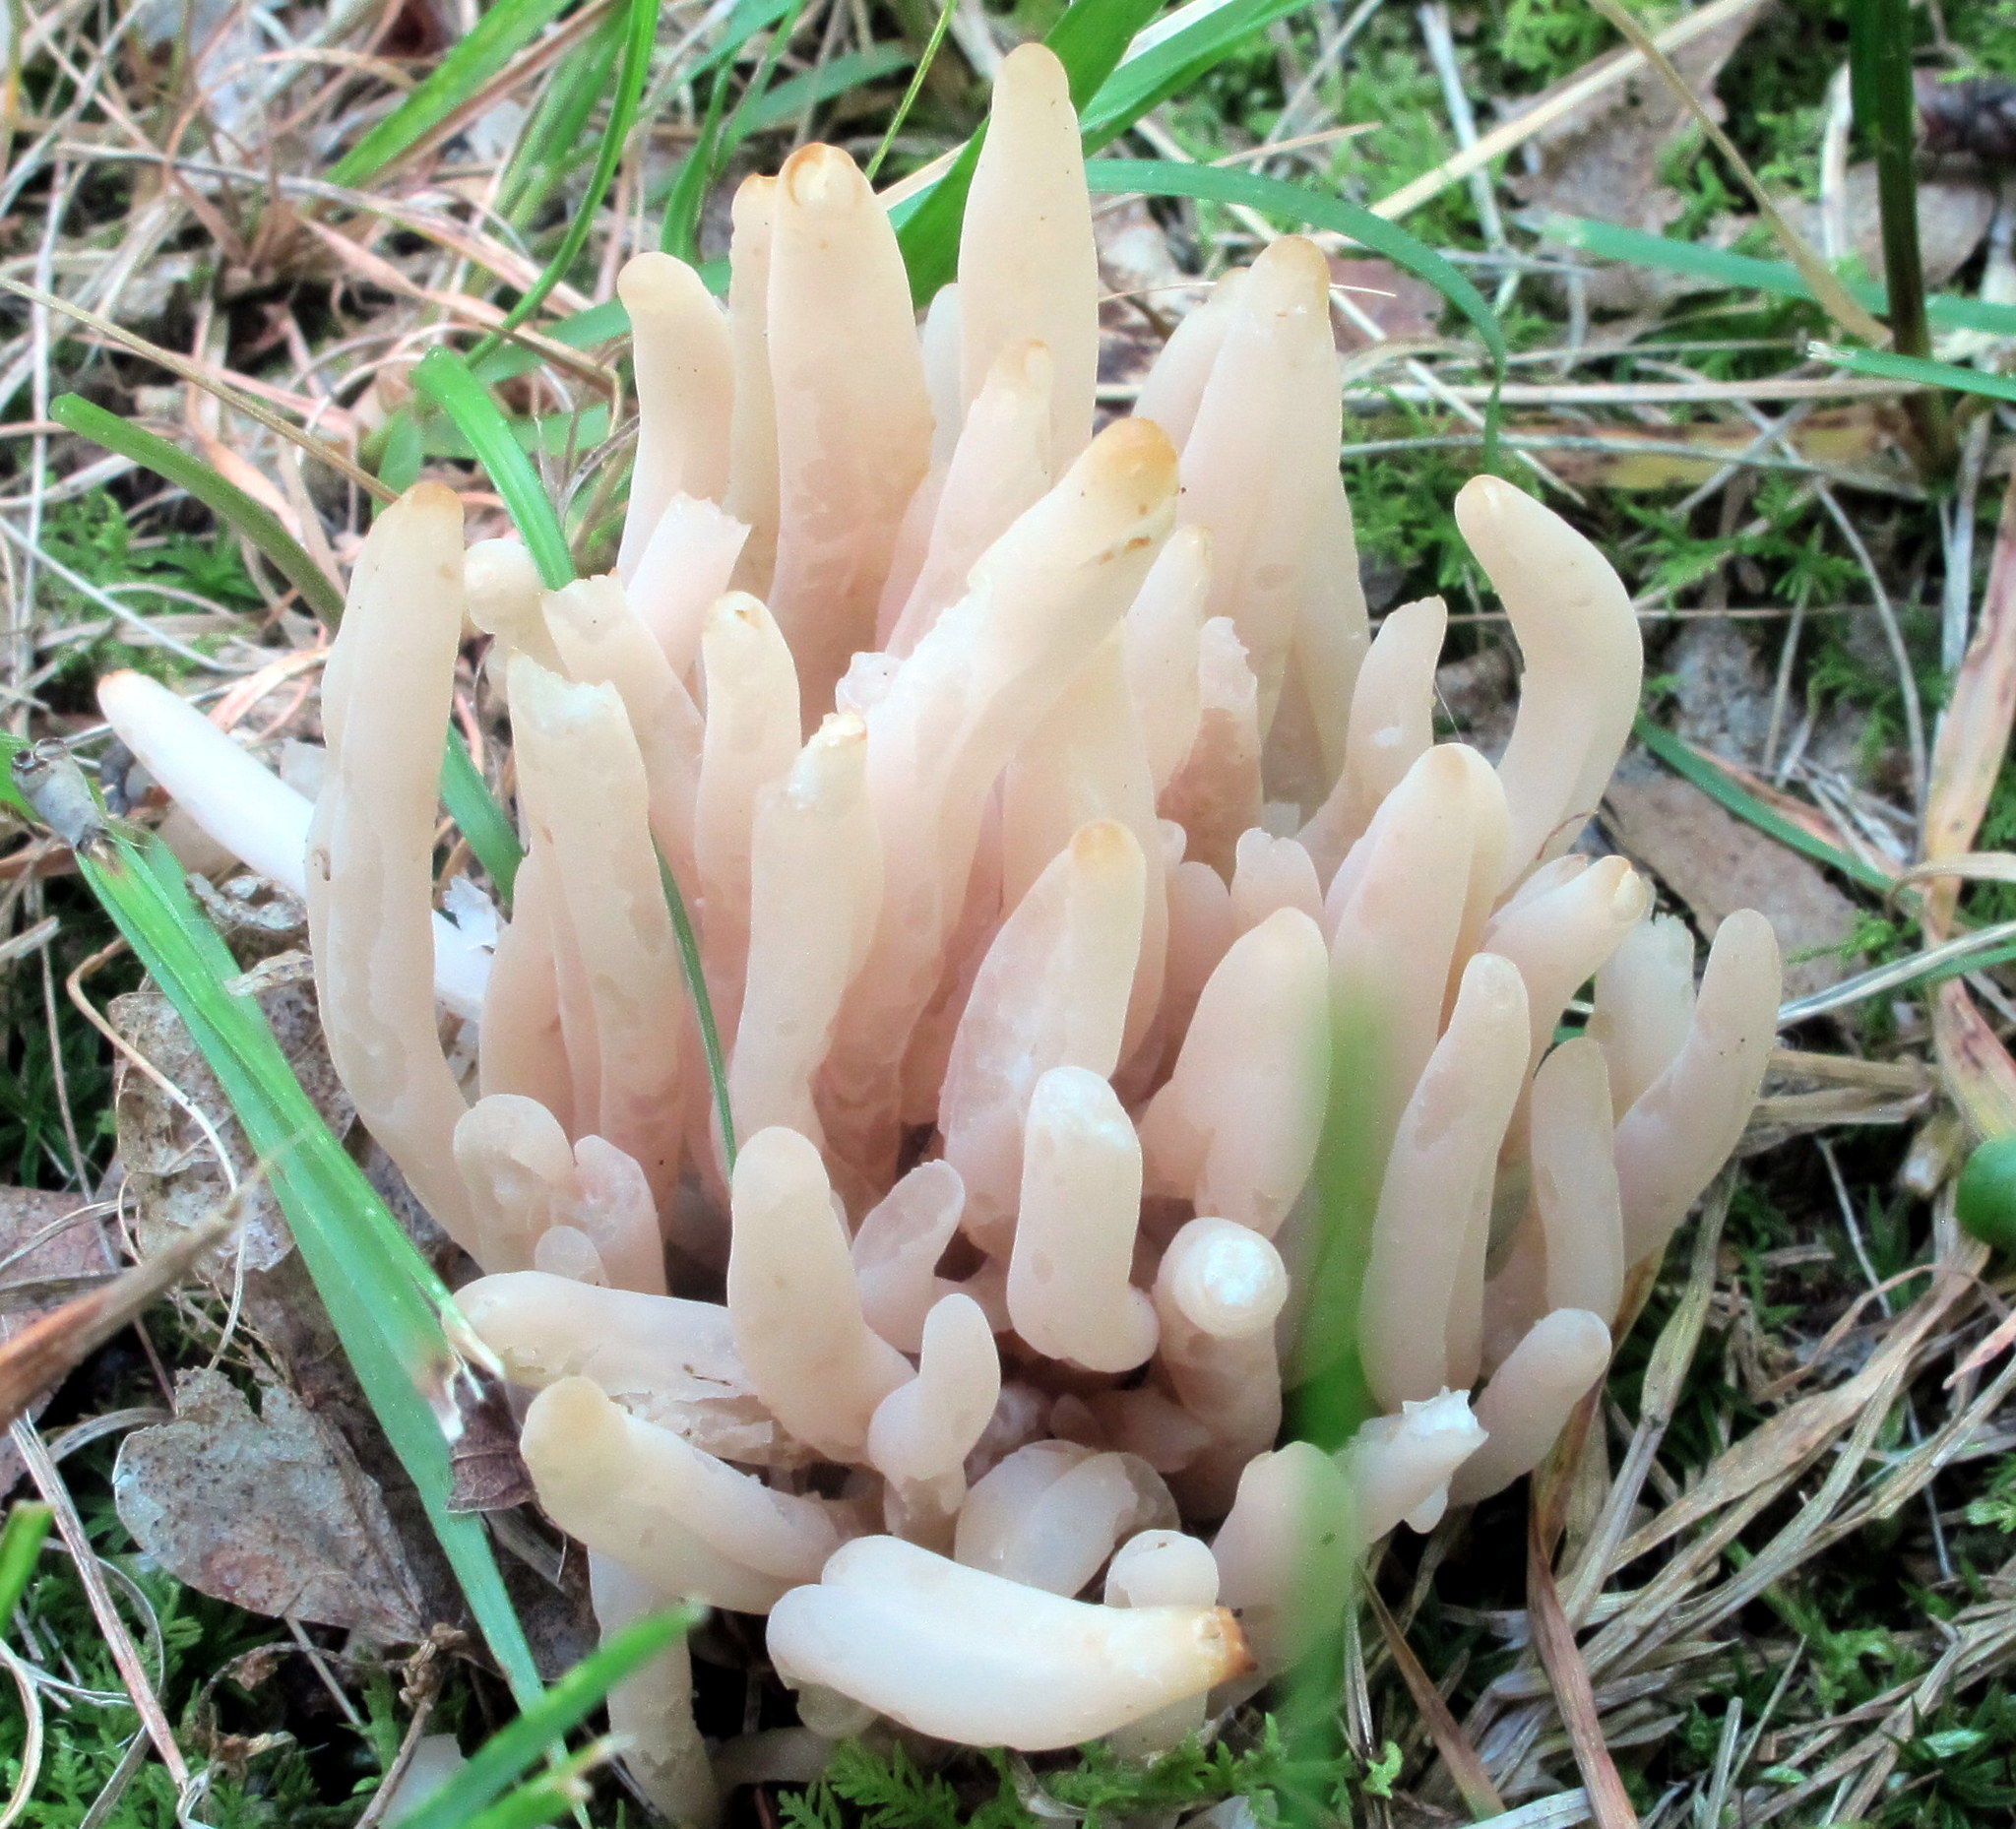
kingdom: Fungi
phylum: Basidiomycota
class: Agaricomycetes
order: Agaricales
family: Clavariaceae
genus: Clavaria
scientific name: Clavaria fumosa
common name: Smoky spindles
